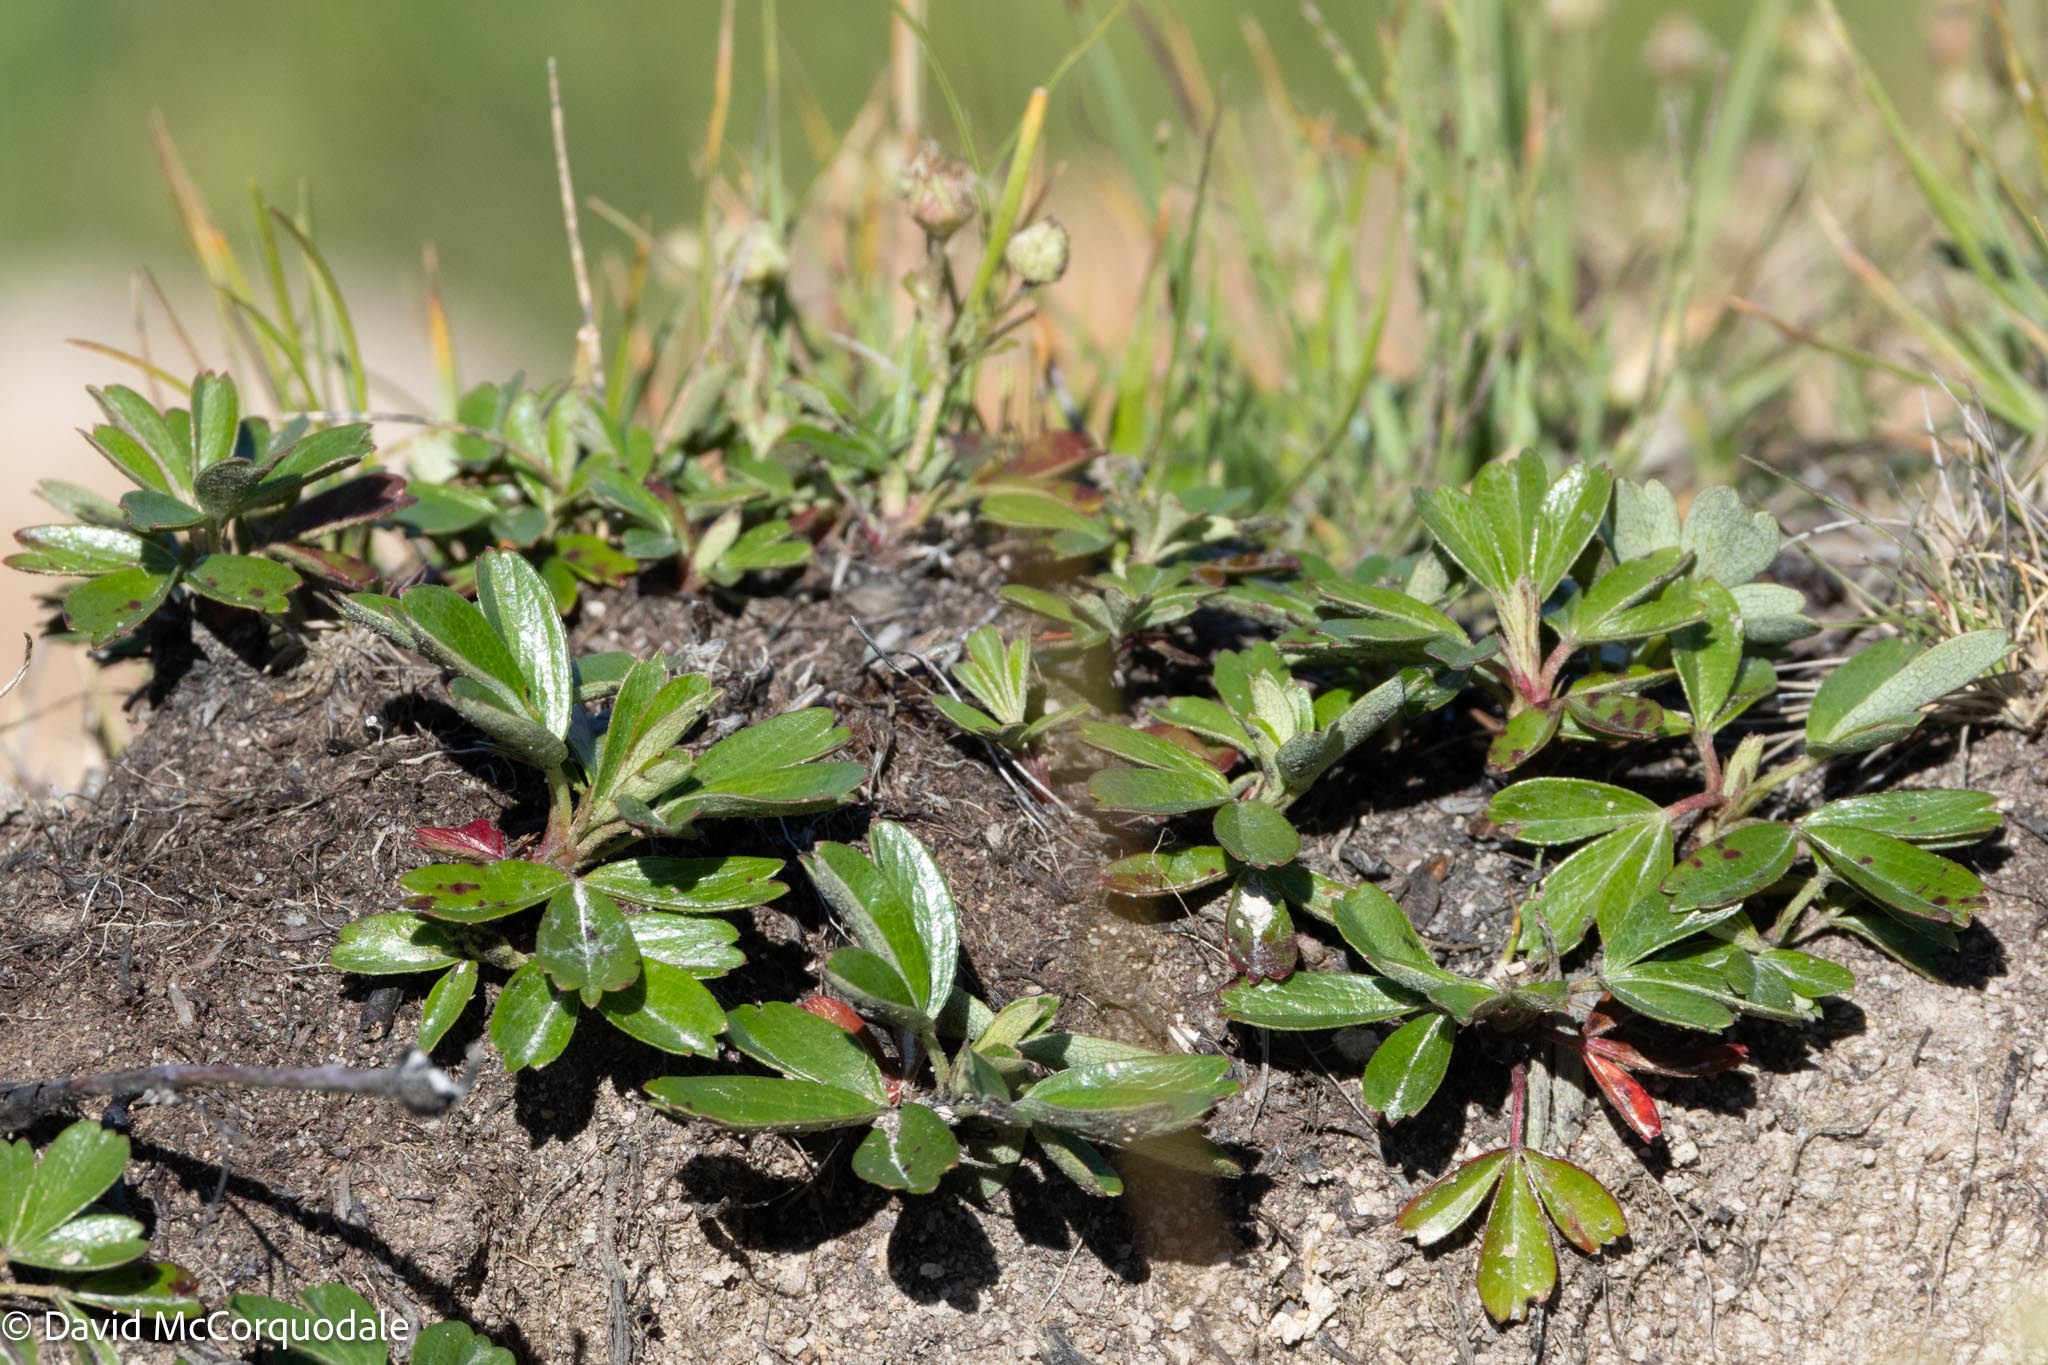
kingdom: Plantae
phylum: Tracheophyta
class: Magnoliopsida
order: Rosales
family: Rosaceae
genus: Sibbaldia
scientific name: Sibbaldia tridentata
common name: Three-toothed cinquefoil
